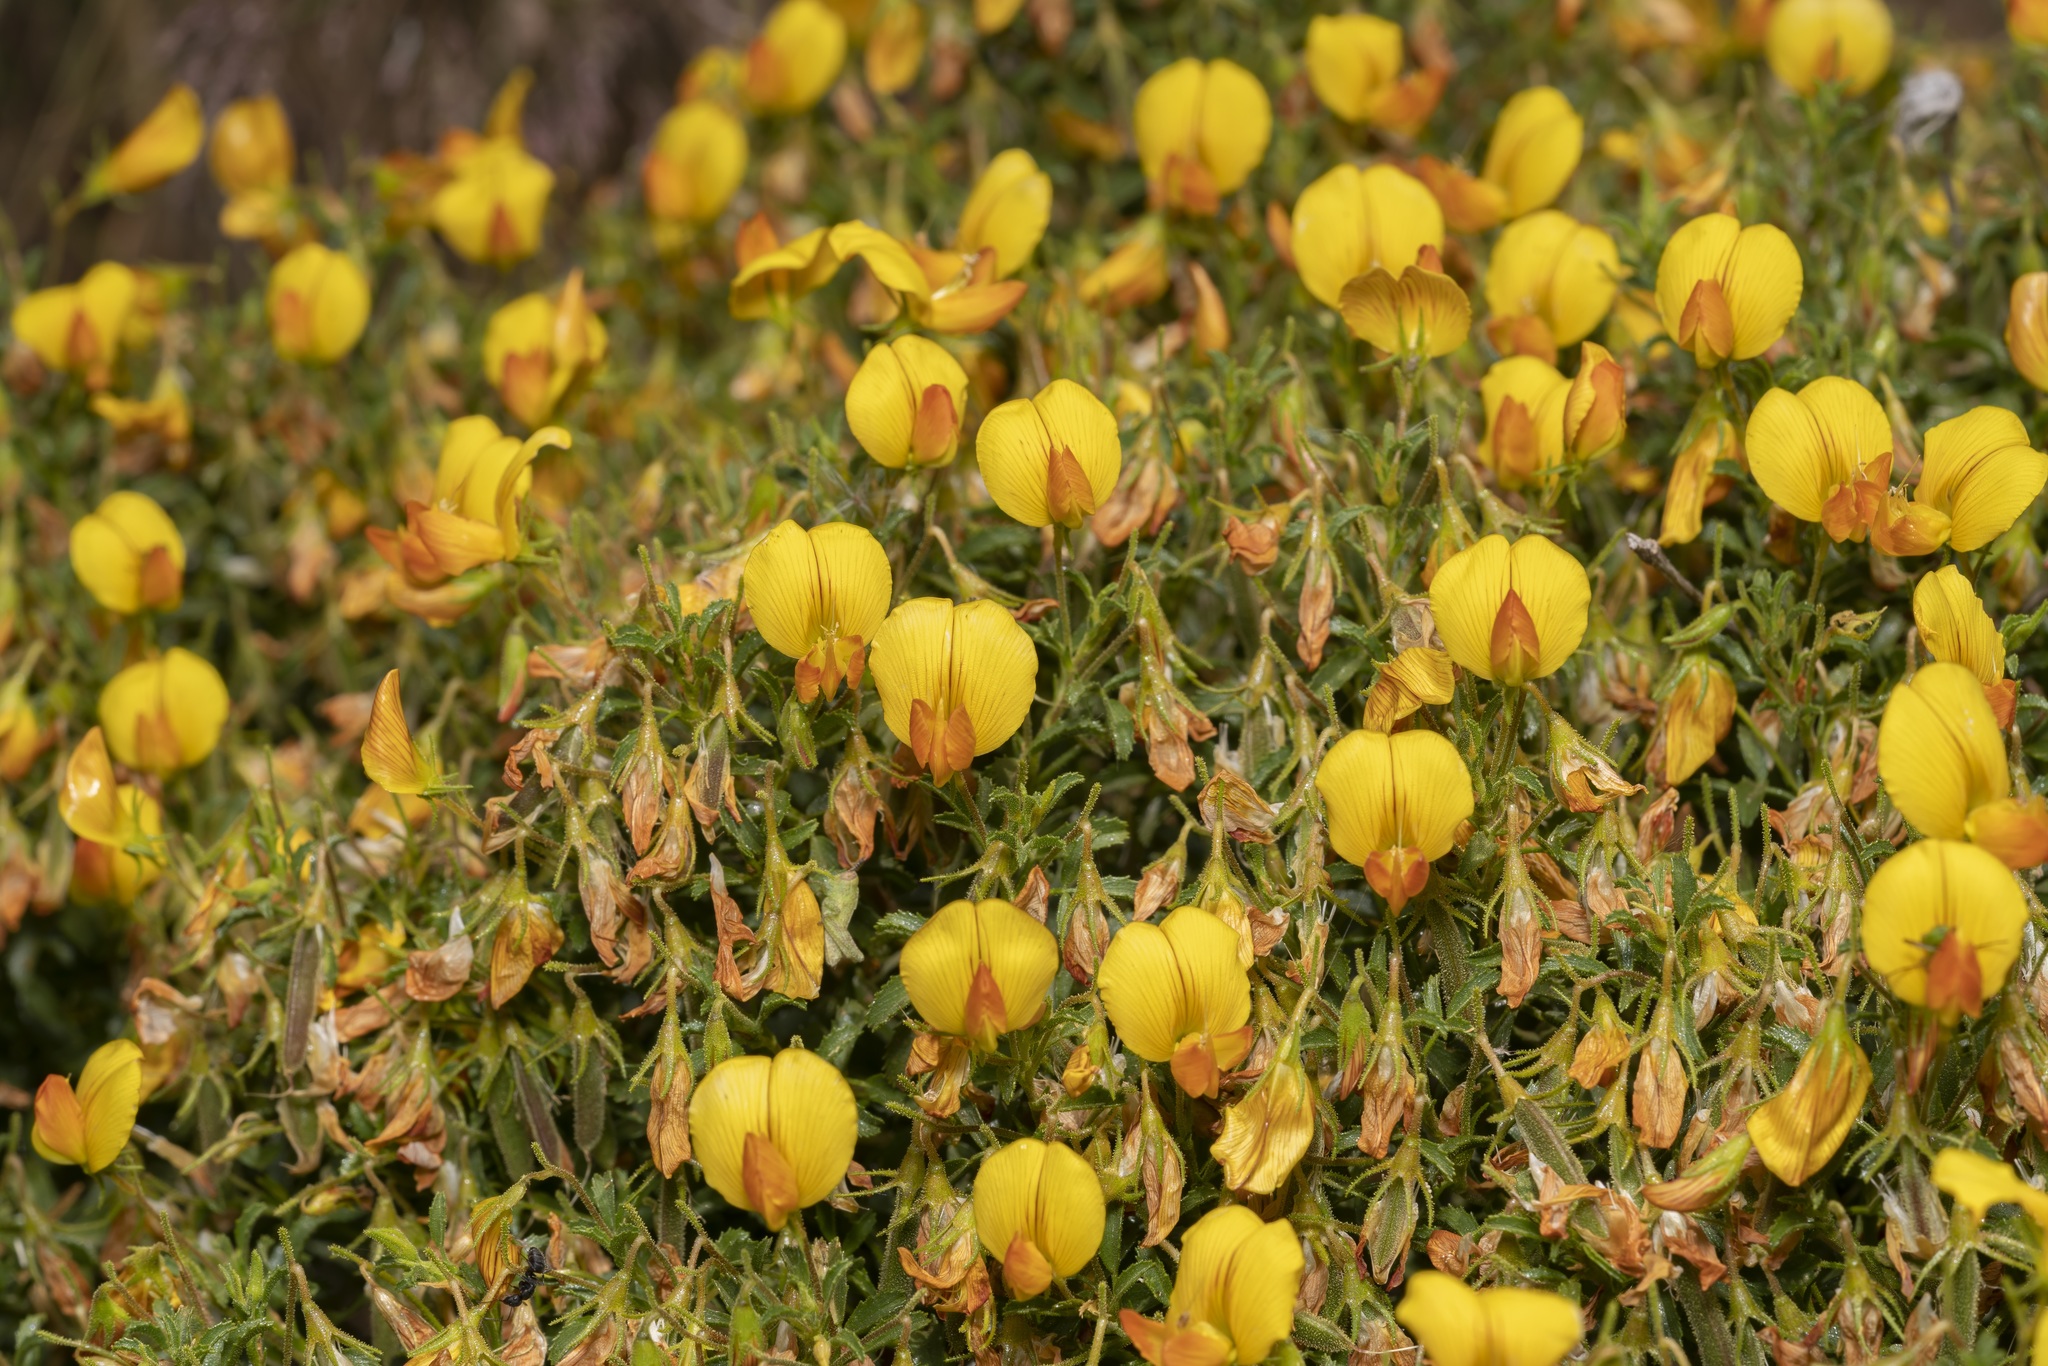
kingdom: Plantae
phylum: Tracheophyta
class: Magnoliopsida
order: Fabales
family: Fabaceae
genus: Ononis
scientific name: Ononis ramosissima
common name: Bush restharrow
